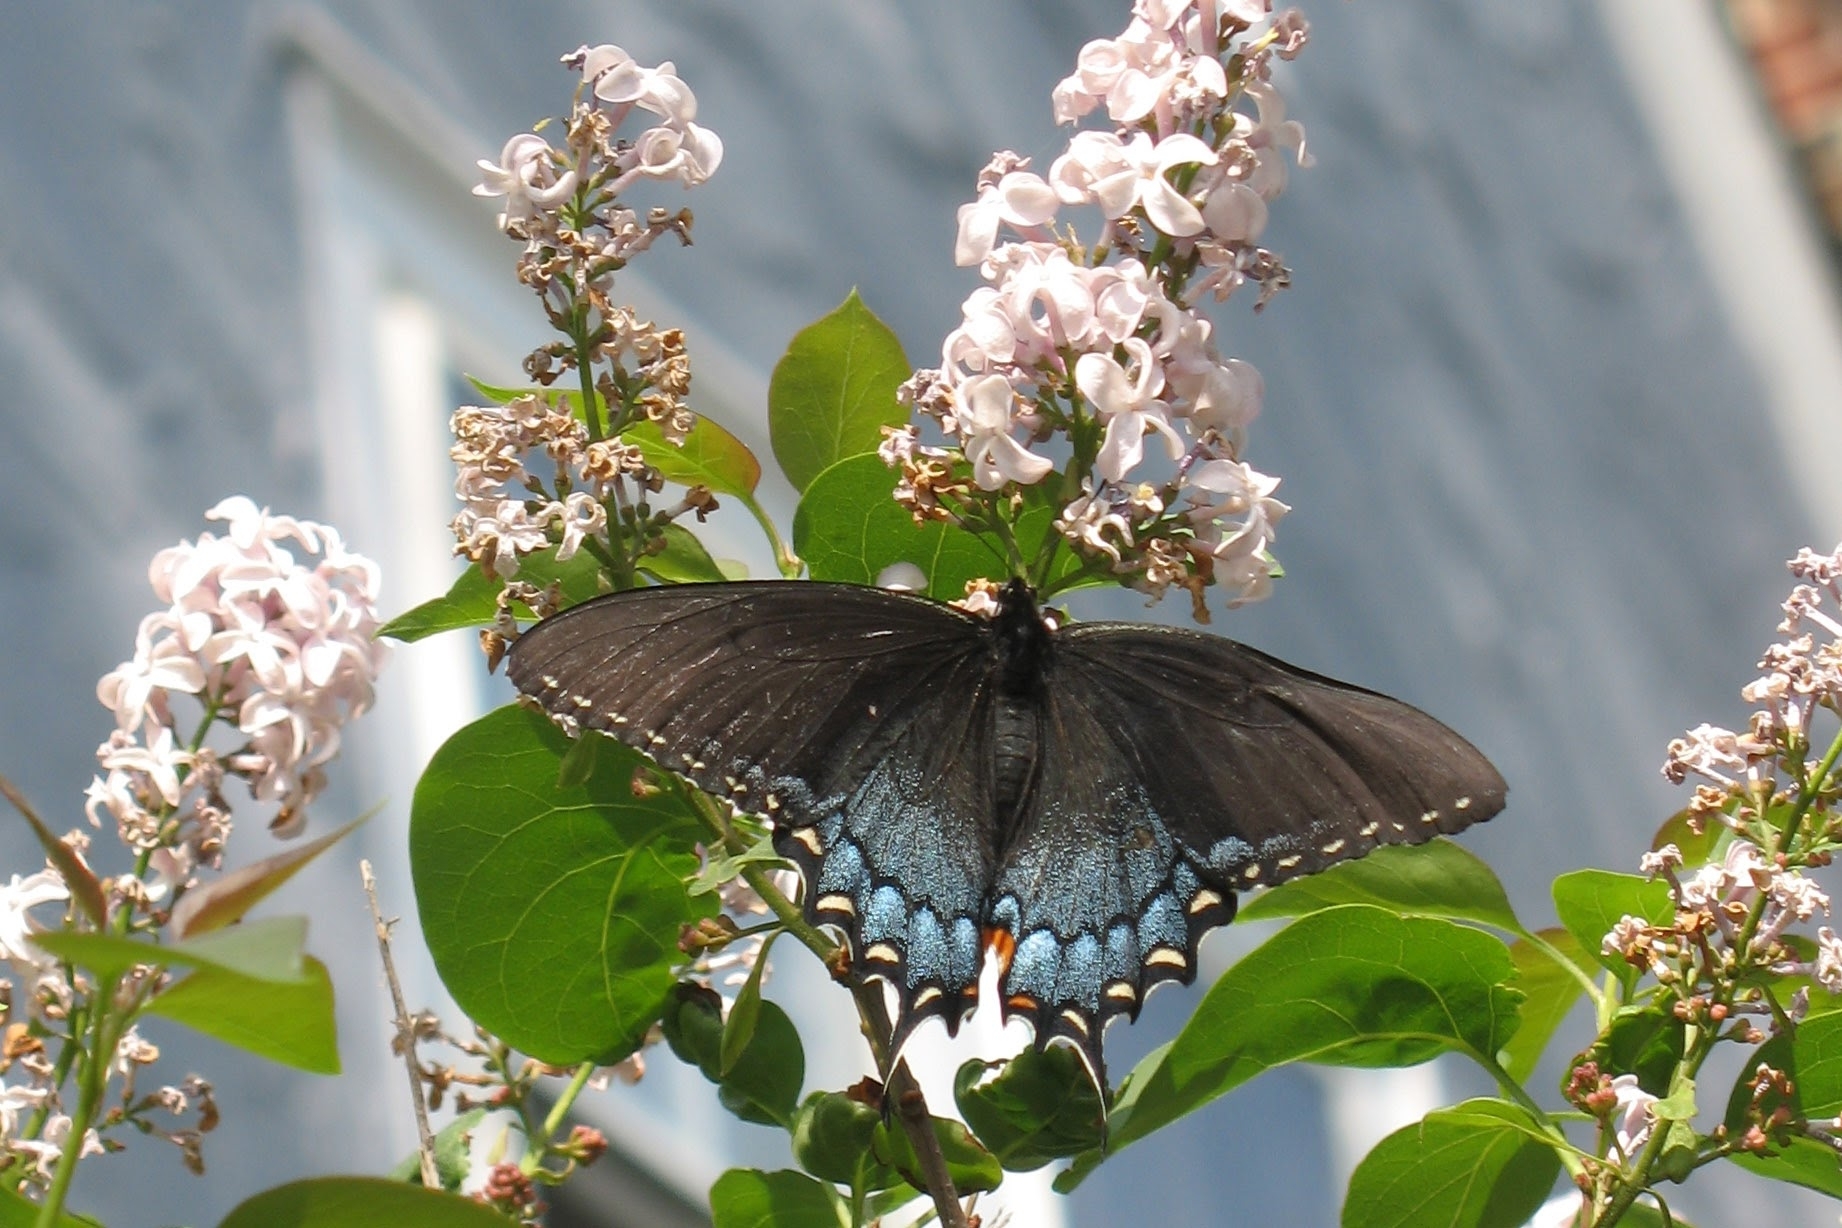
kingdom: Animalia
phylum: Arthropoda
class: Insecta
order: Lepidoptera
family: Papilionidae
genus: Papilio
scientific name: Papilio glaucus
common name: Tiger swallowtail
